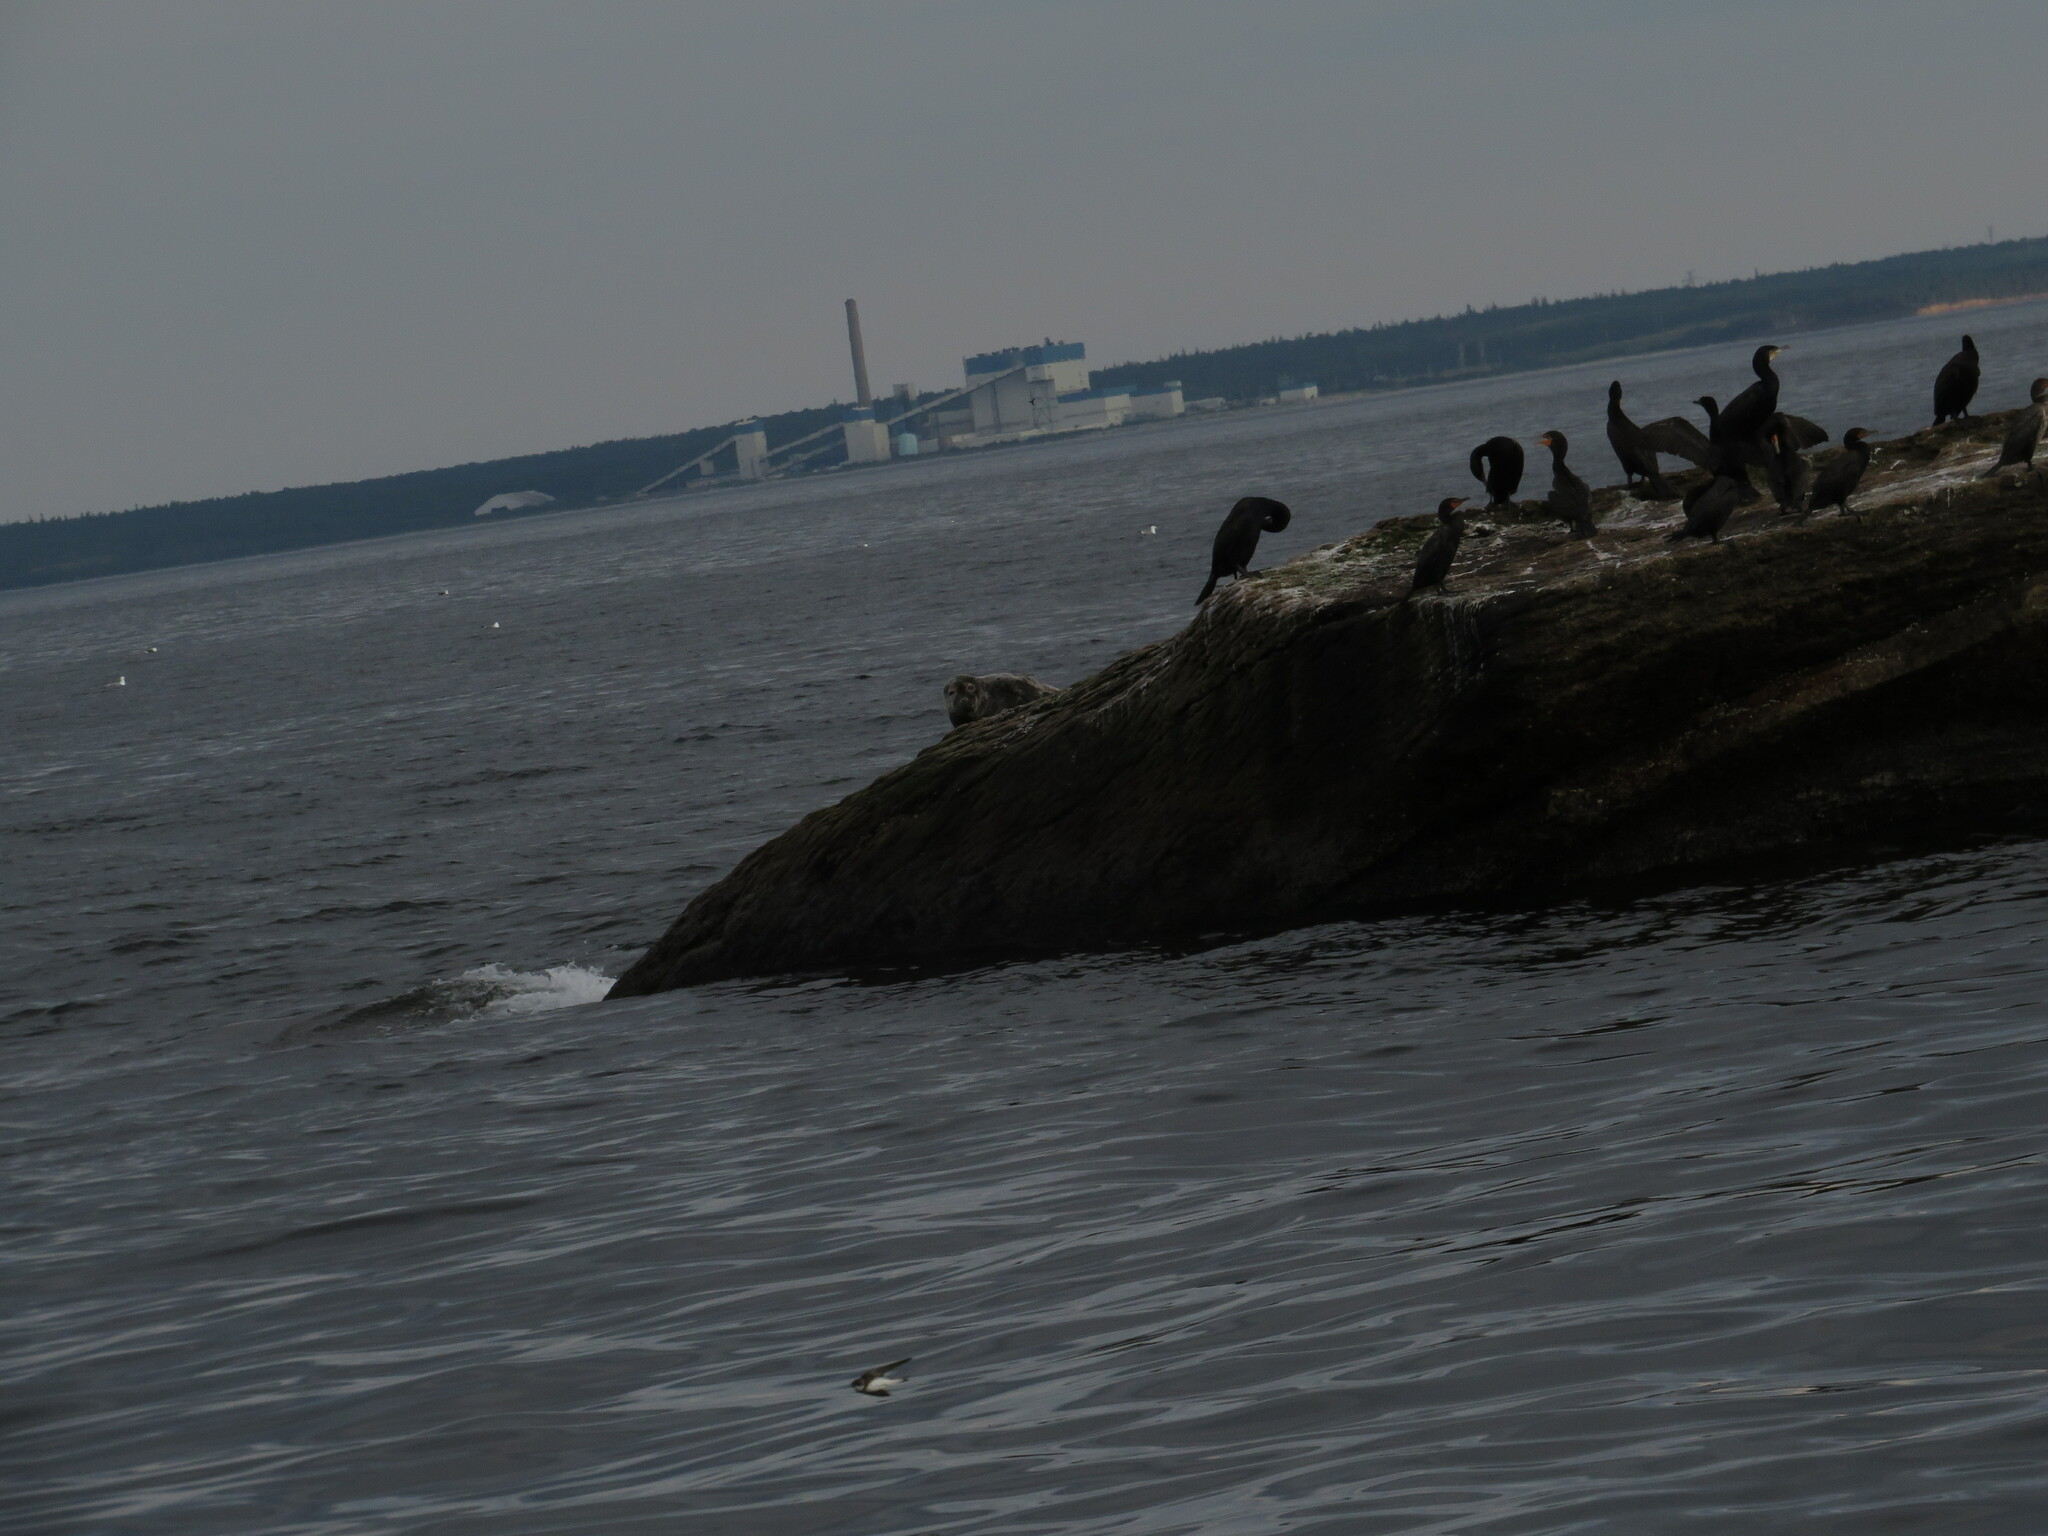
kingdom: Animalia
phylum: Chordata
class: Aves
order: Suliformes
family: Phalacrocoracidae
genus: Phalacrocorax
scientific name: Phalacrocorax carbo
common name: Great cormorant
